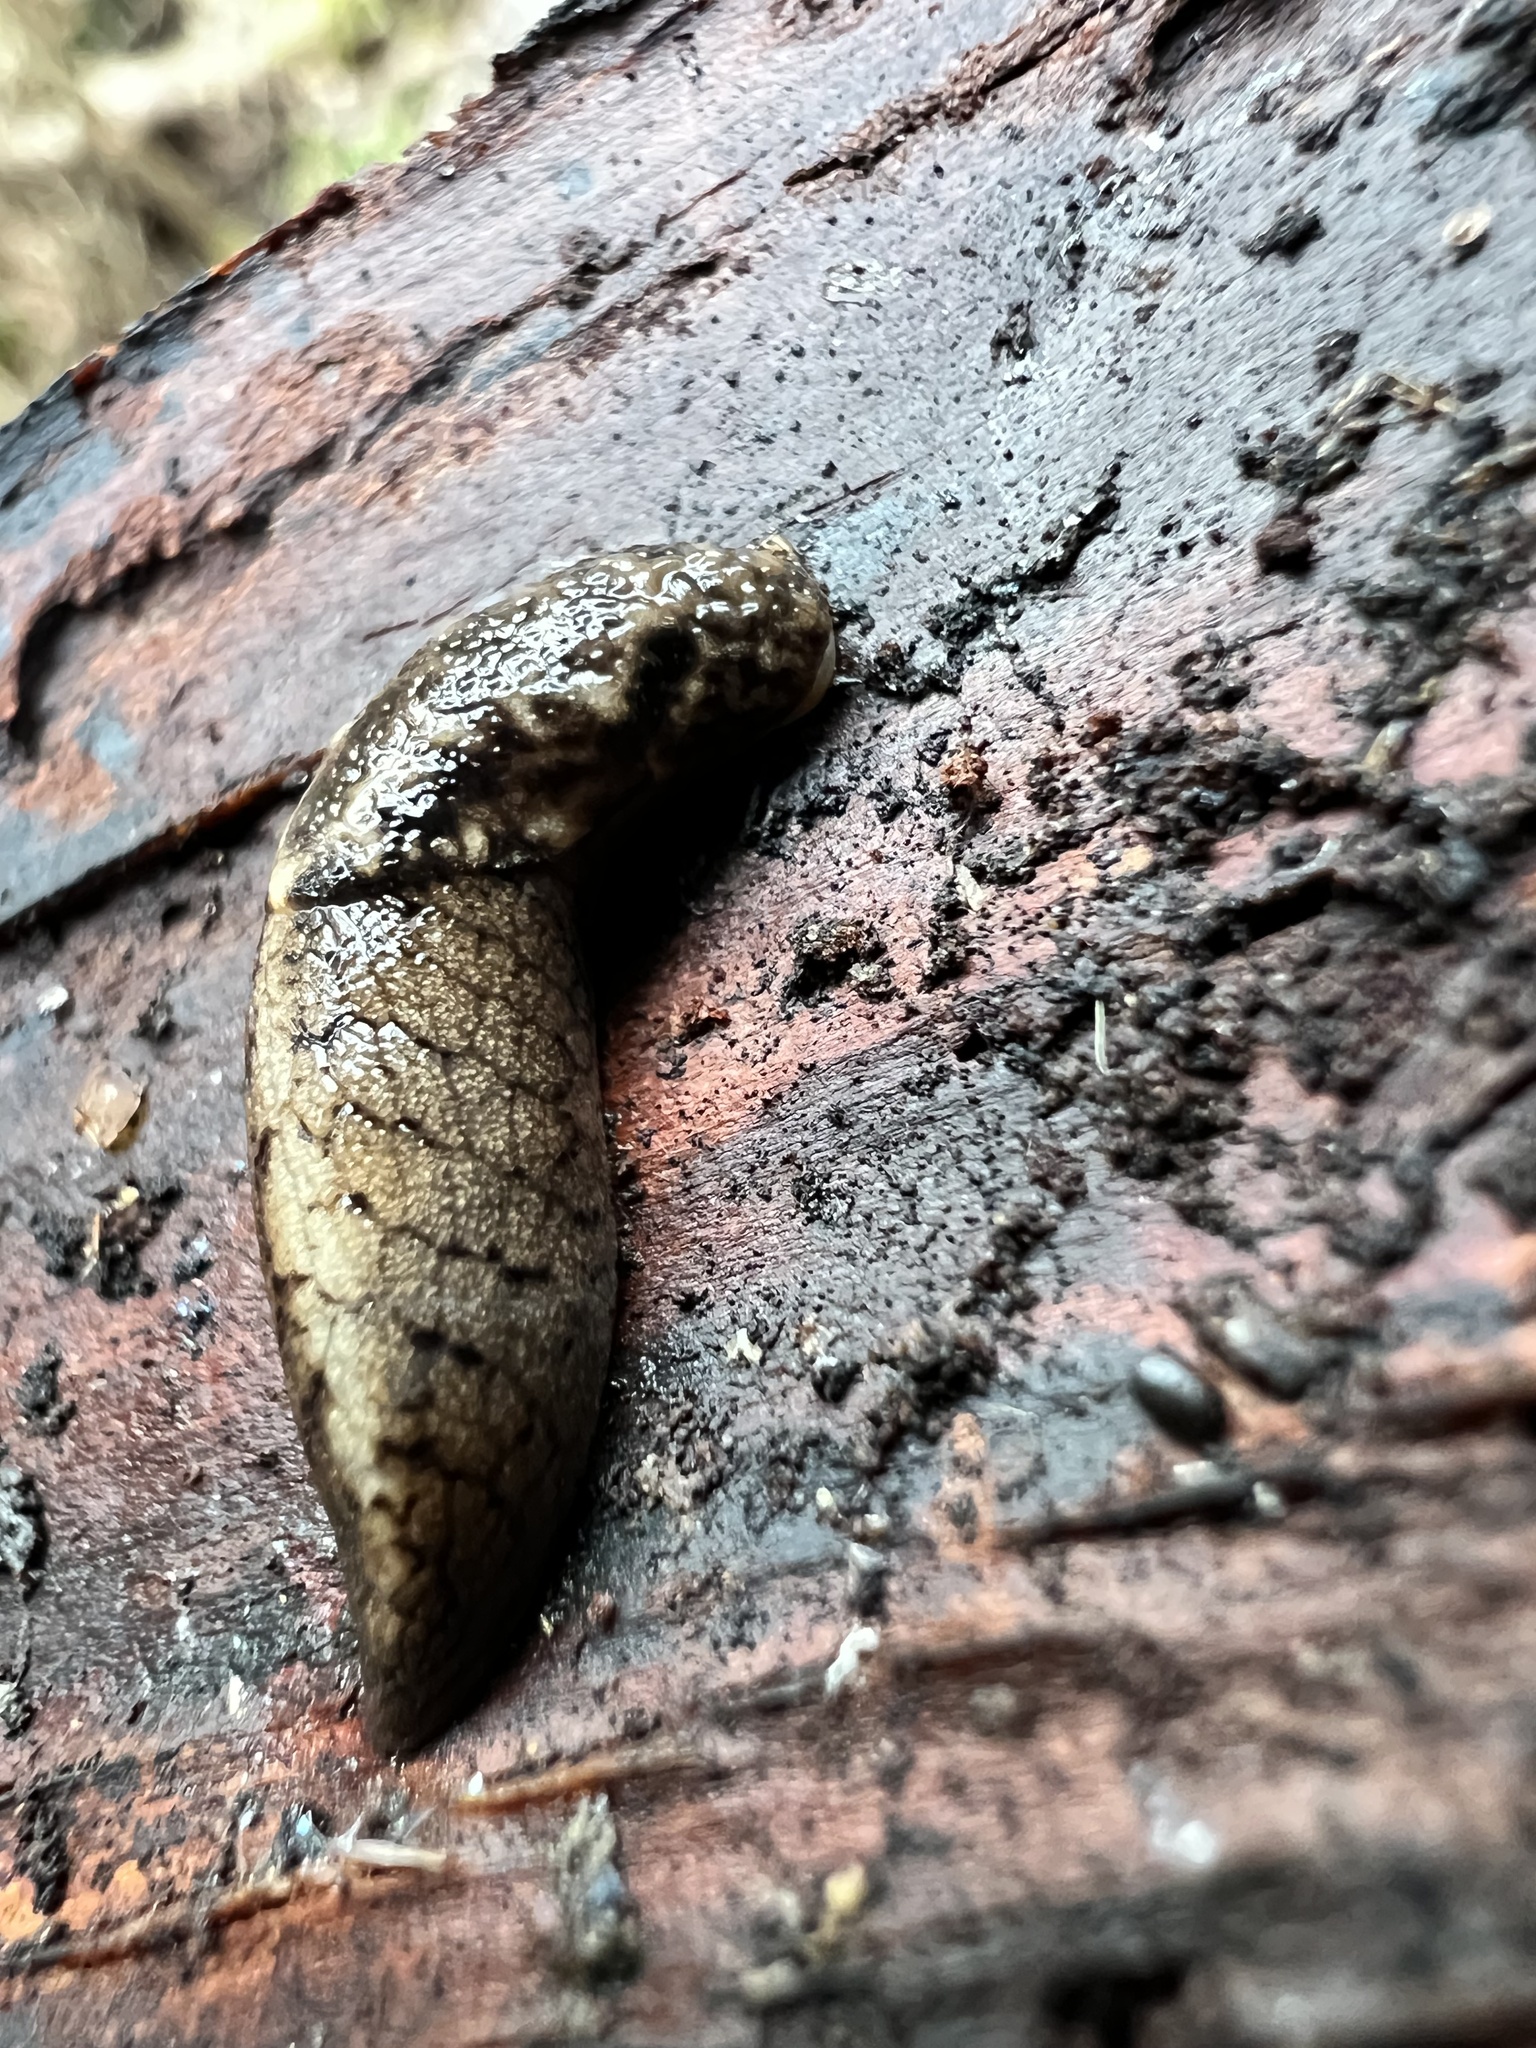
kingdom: Animalia
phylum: Mollusca
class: Gastropoda
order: Stylommatophora
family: Ariolimacidae
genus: Prophysaon
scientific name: Prophysaon andersonii
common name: Reticulate taildropper
